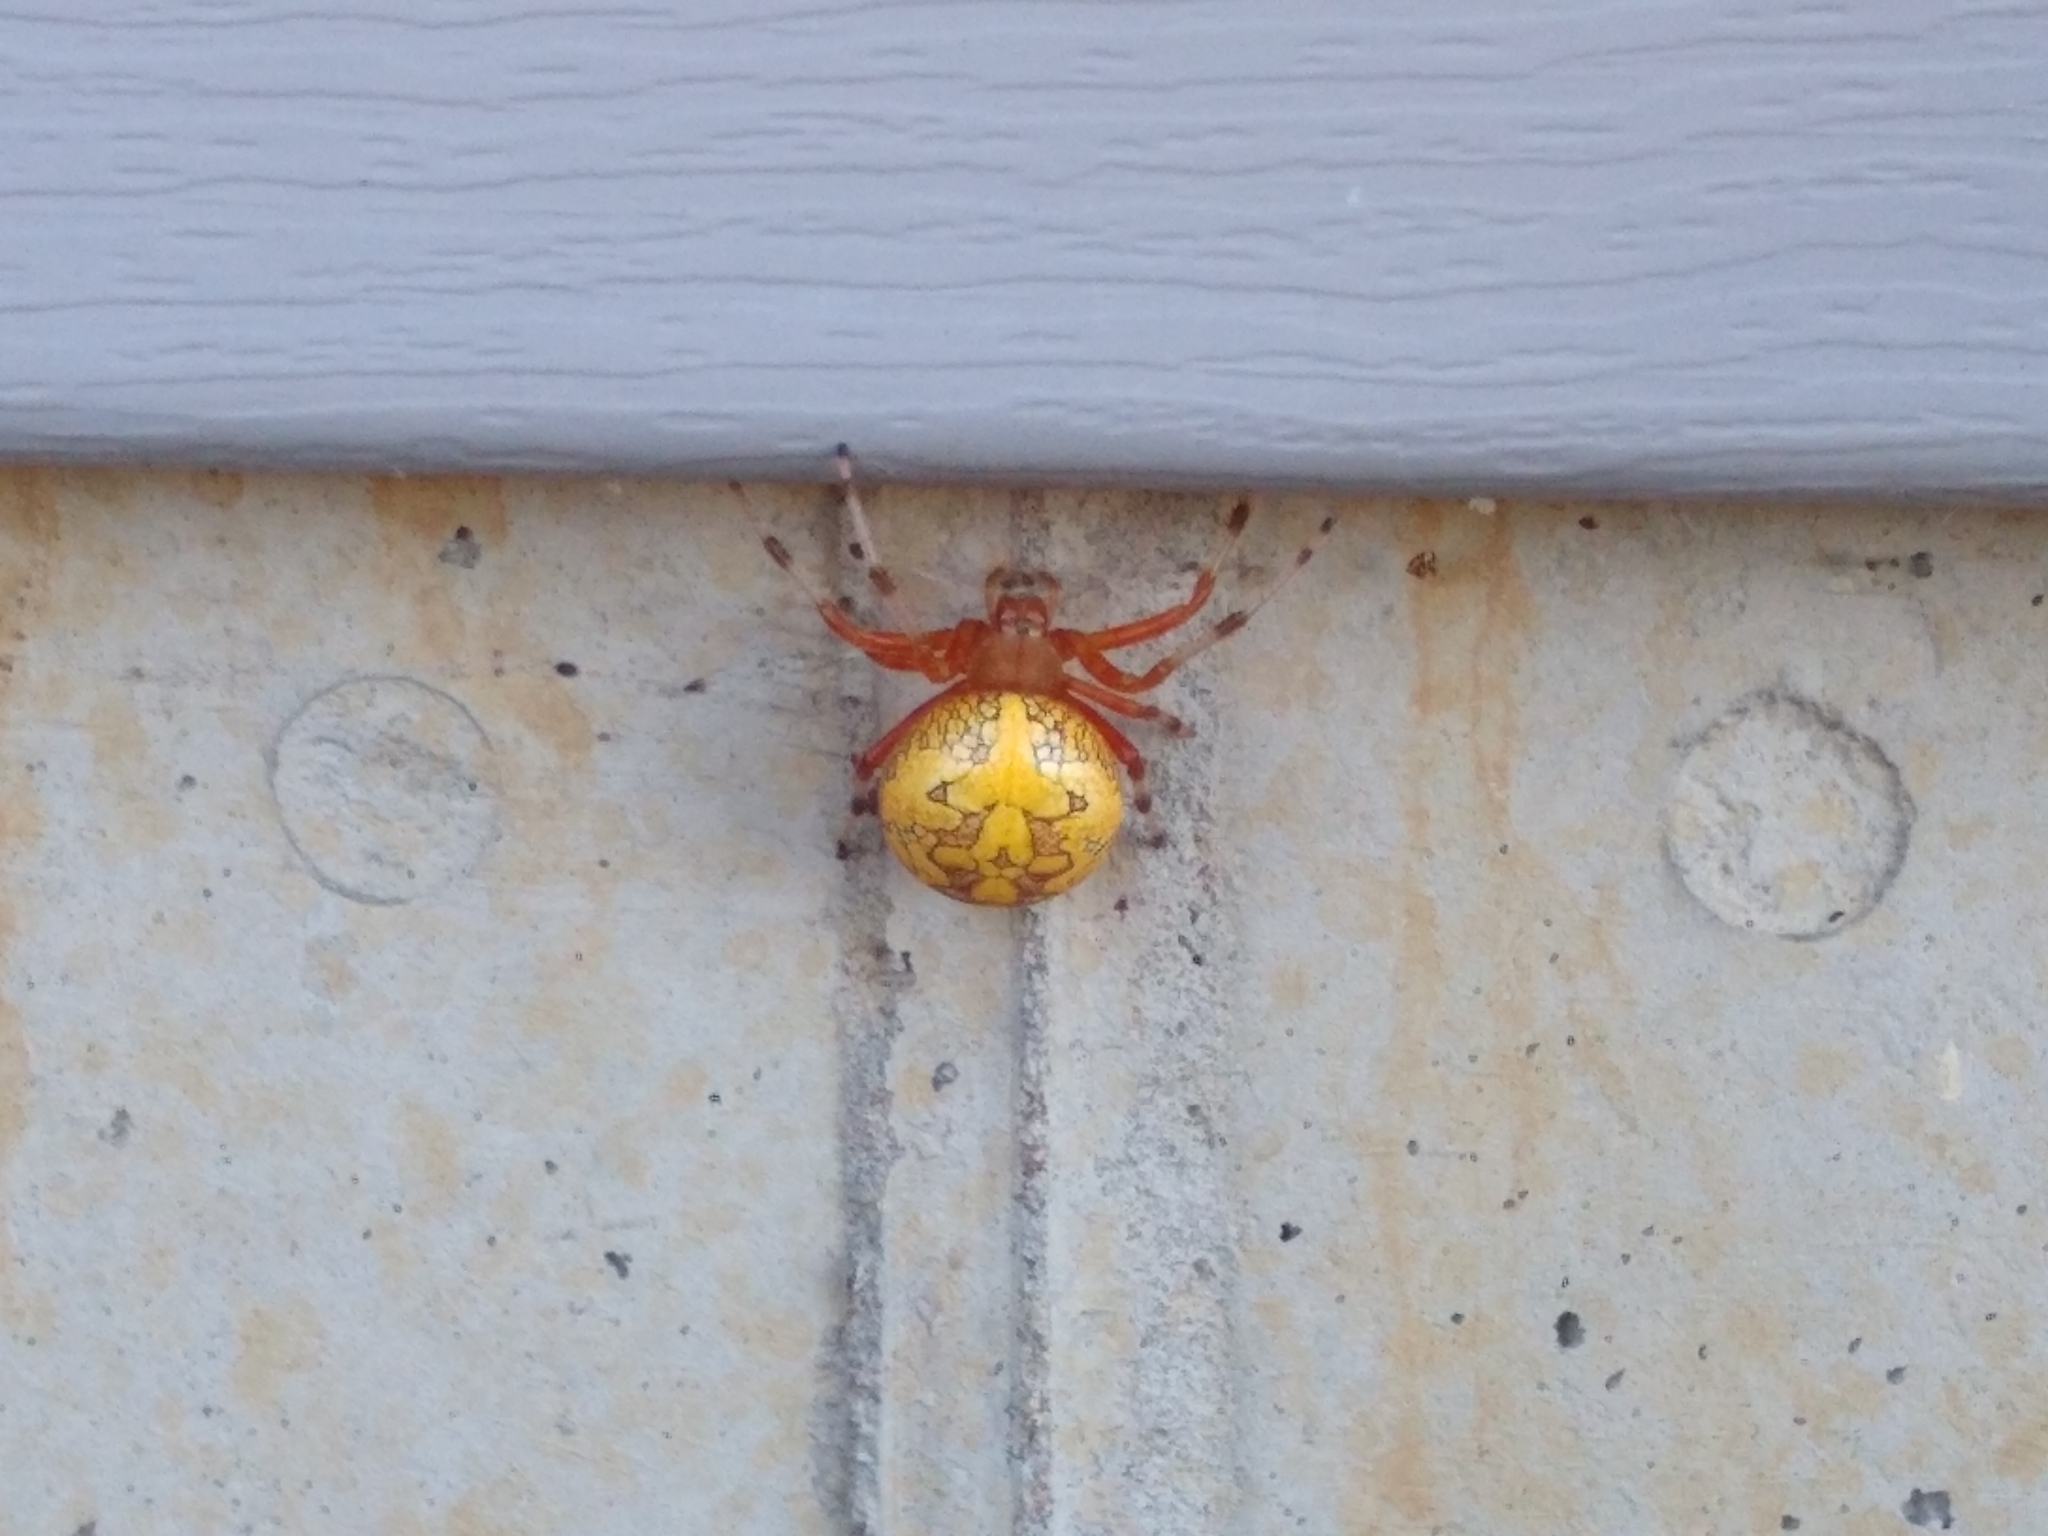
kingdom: Animalia
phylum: Arthropoda
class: Arachnida
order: Araneae
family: Araneidae
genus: Araneus
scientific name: Araneus marmoreus
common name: Marbled orbweaver
